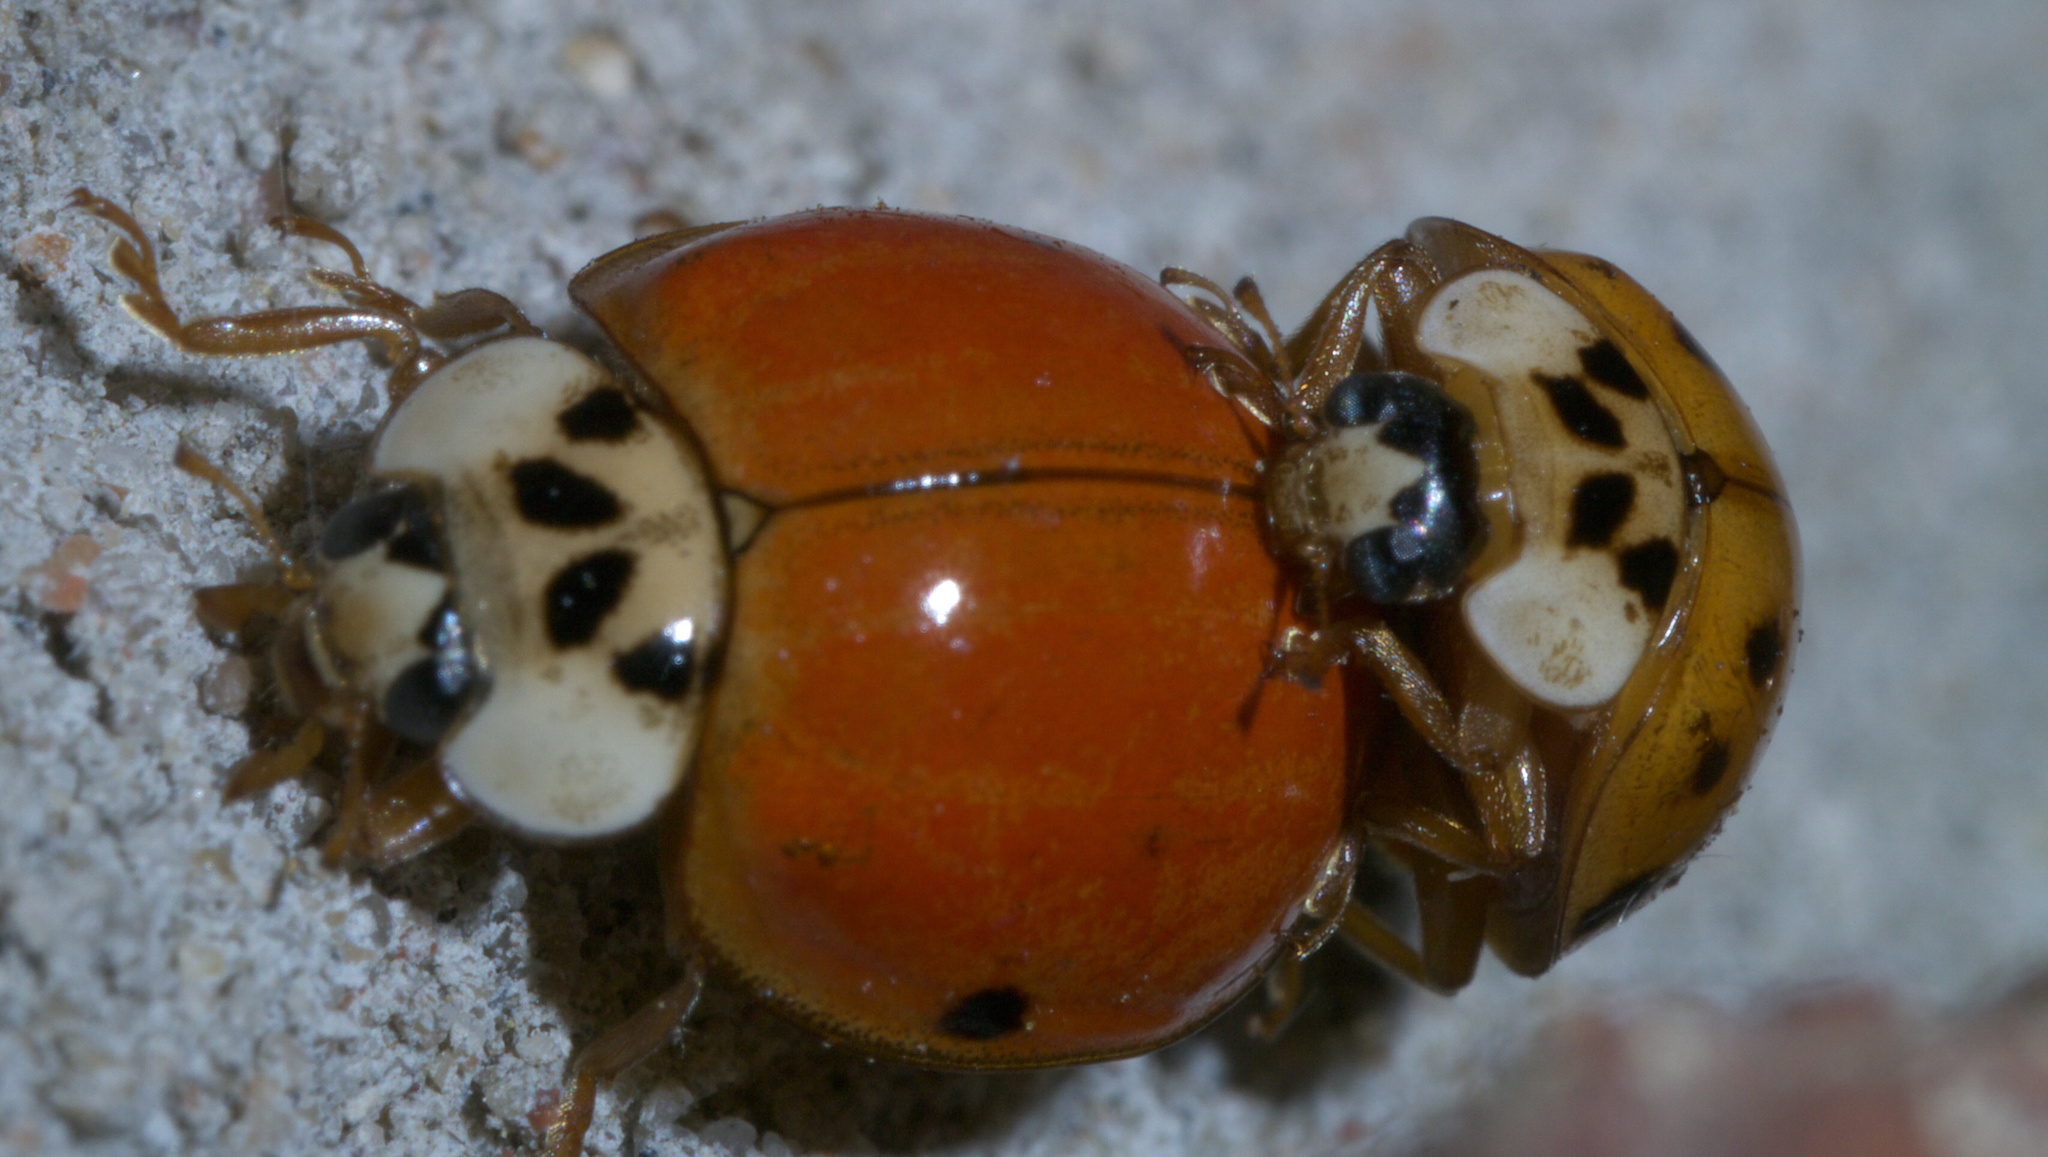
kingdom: Animalia
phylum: Arthropoda
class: Insecta
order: Coleoptera
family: Coccinellidae
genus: Harmonia
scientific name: Harmonia axyridis
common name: Harlequin ladybird
